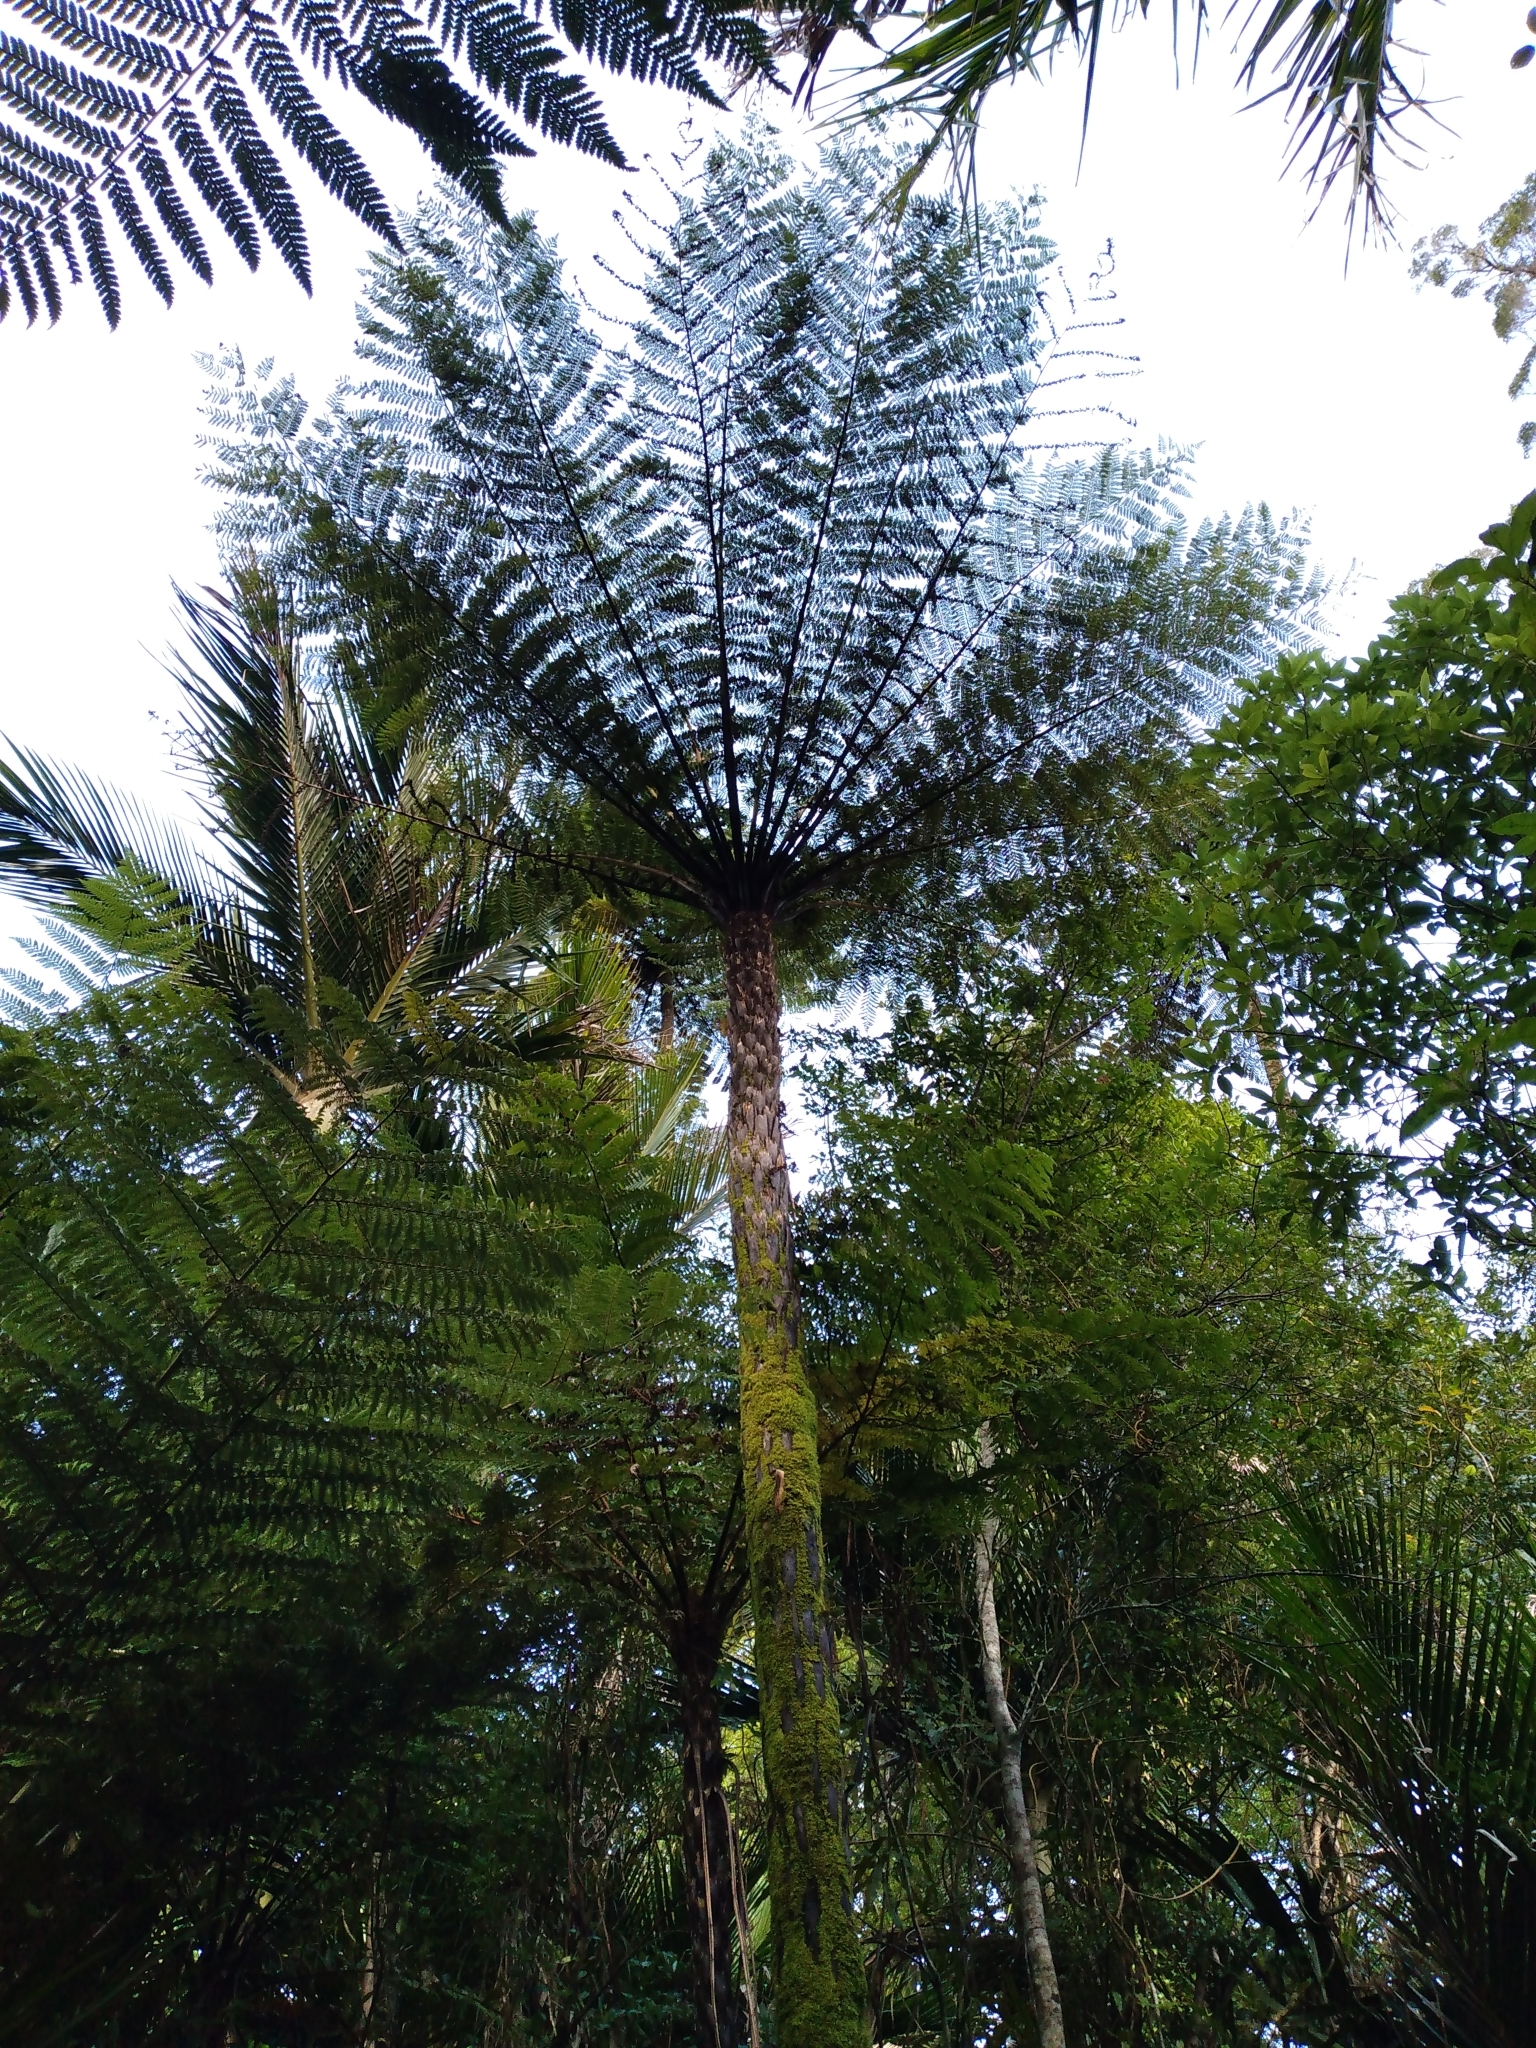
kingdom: Plantae
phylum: Tracheophyta
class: Polypodiopsida
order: Cyatheales
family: Cyatheaceae
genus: Cyathea
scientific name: Cyathea cunninghamii
